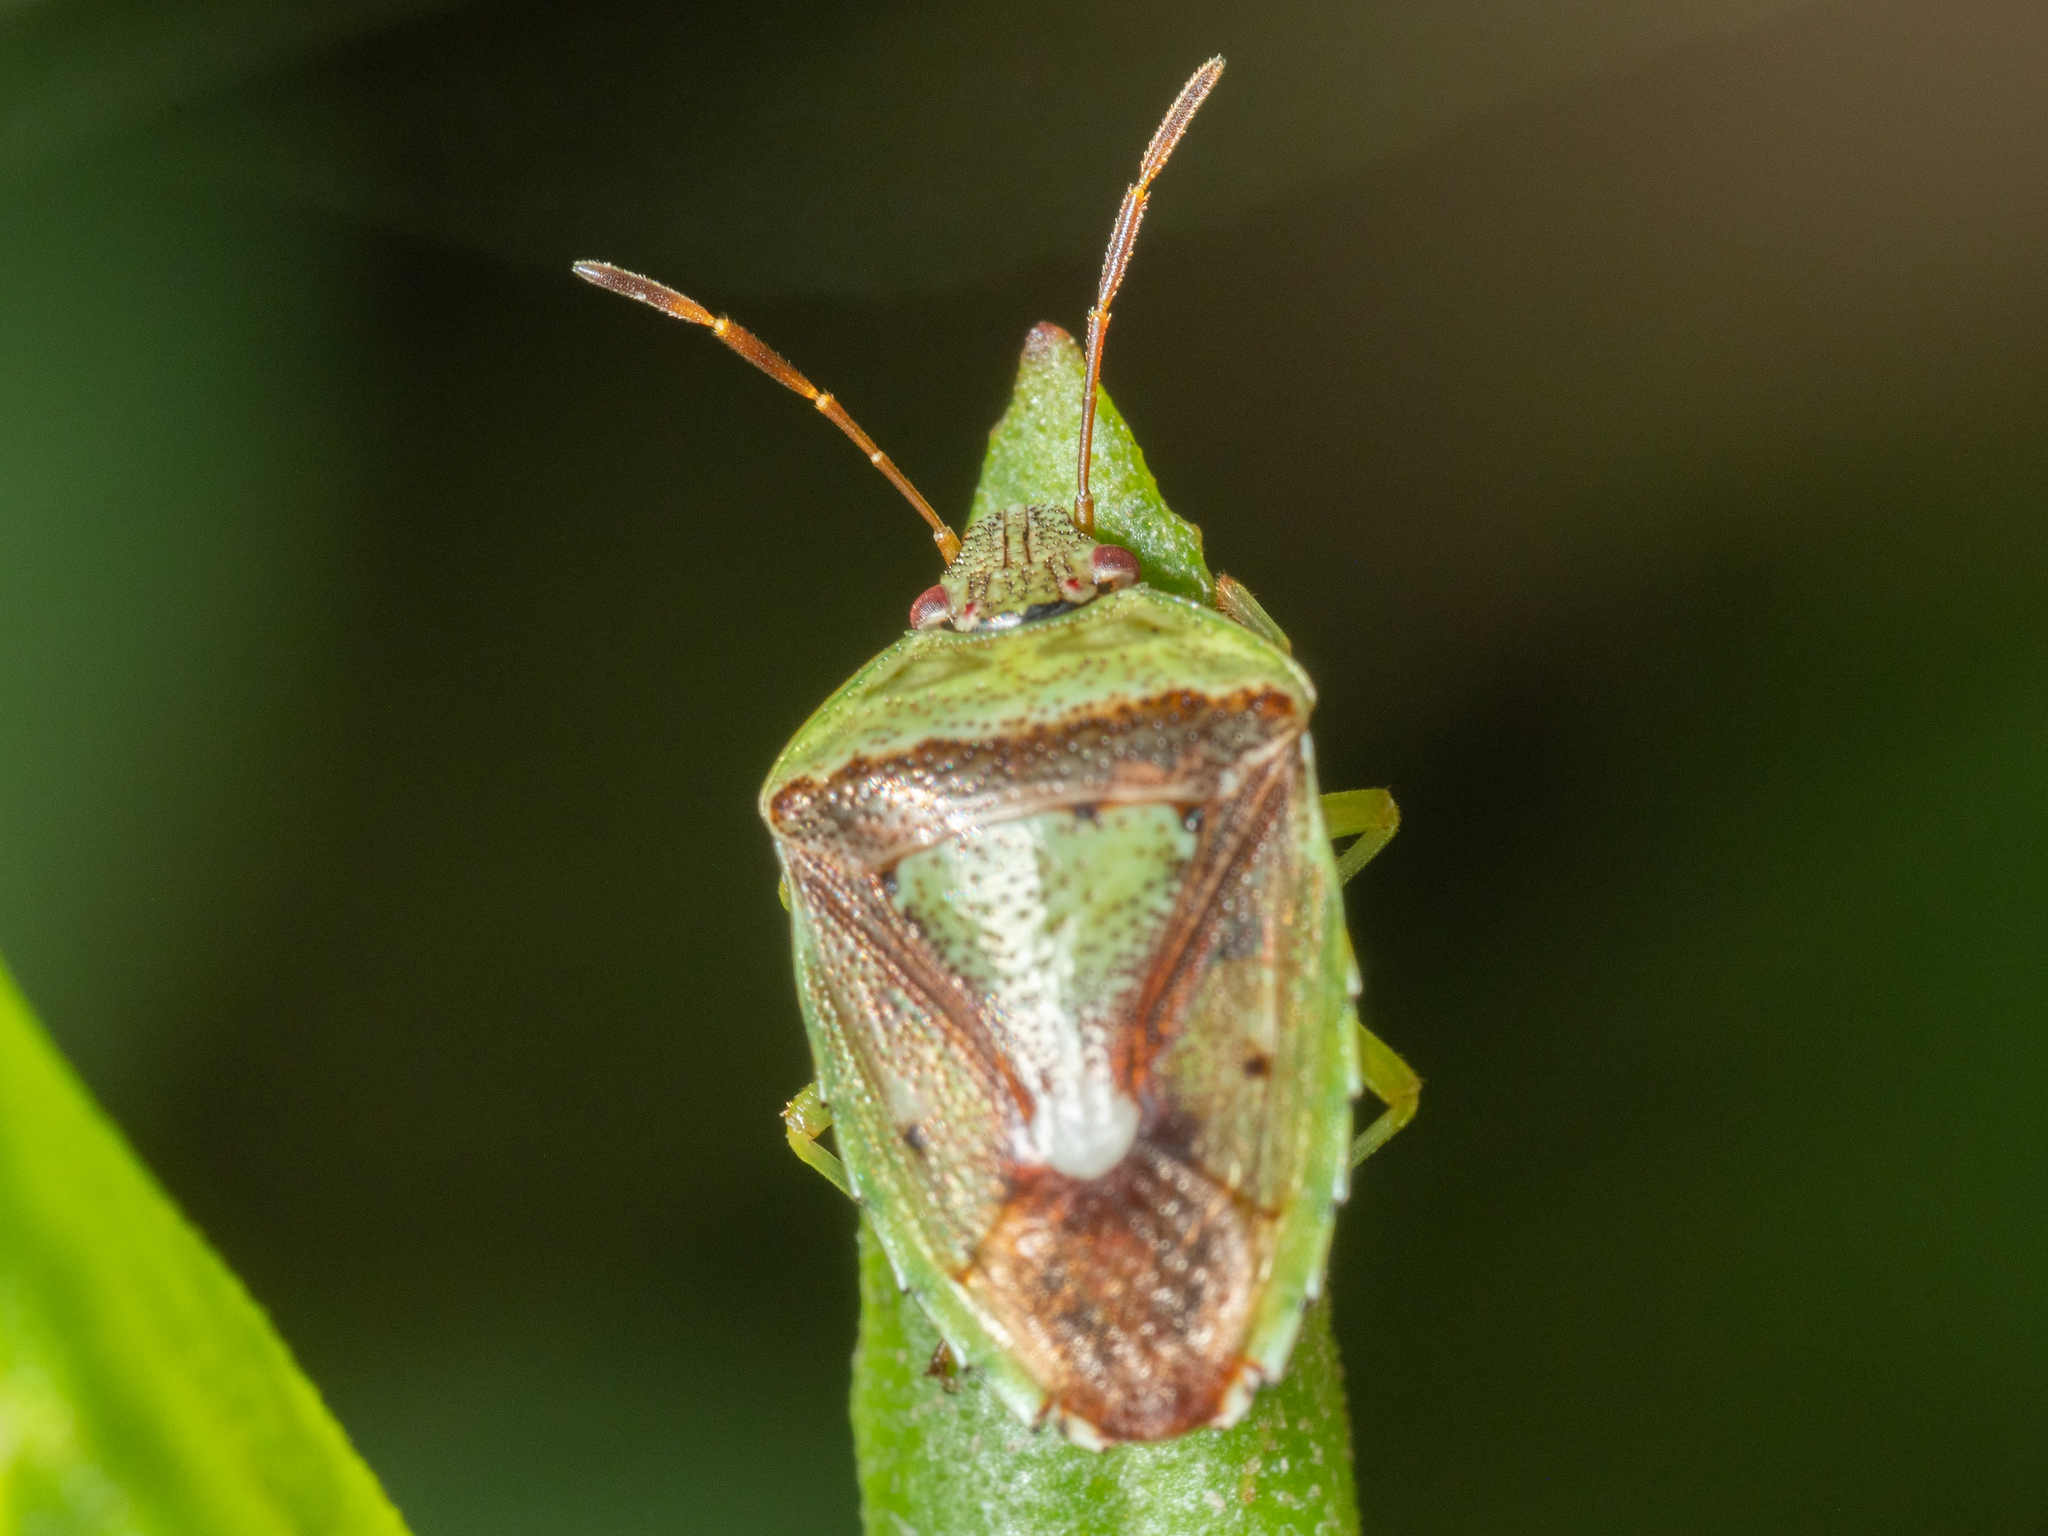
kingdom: Animalia
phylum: Arthropoda
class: Insecta
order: Hemiptera
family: Pentatomidae
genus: Ocirrhoe
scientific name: Ocirrhoe
